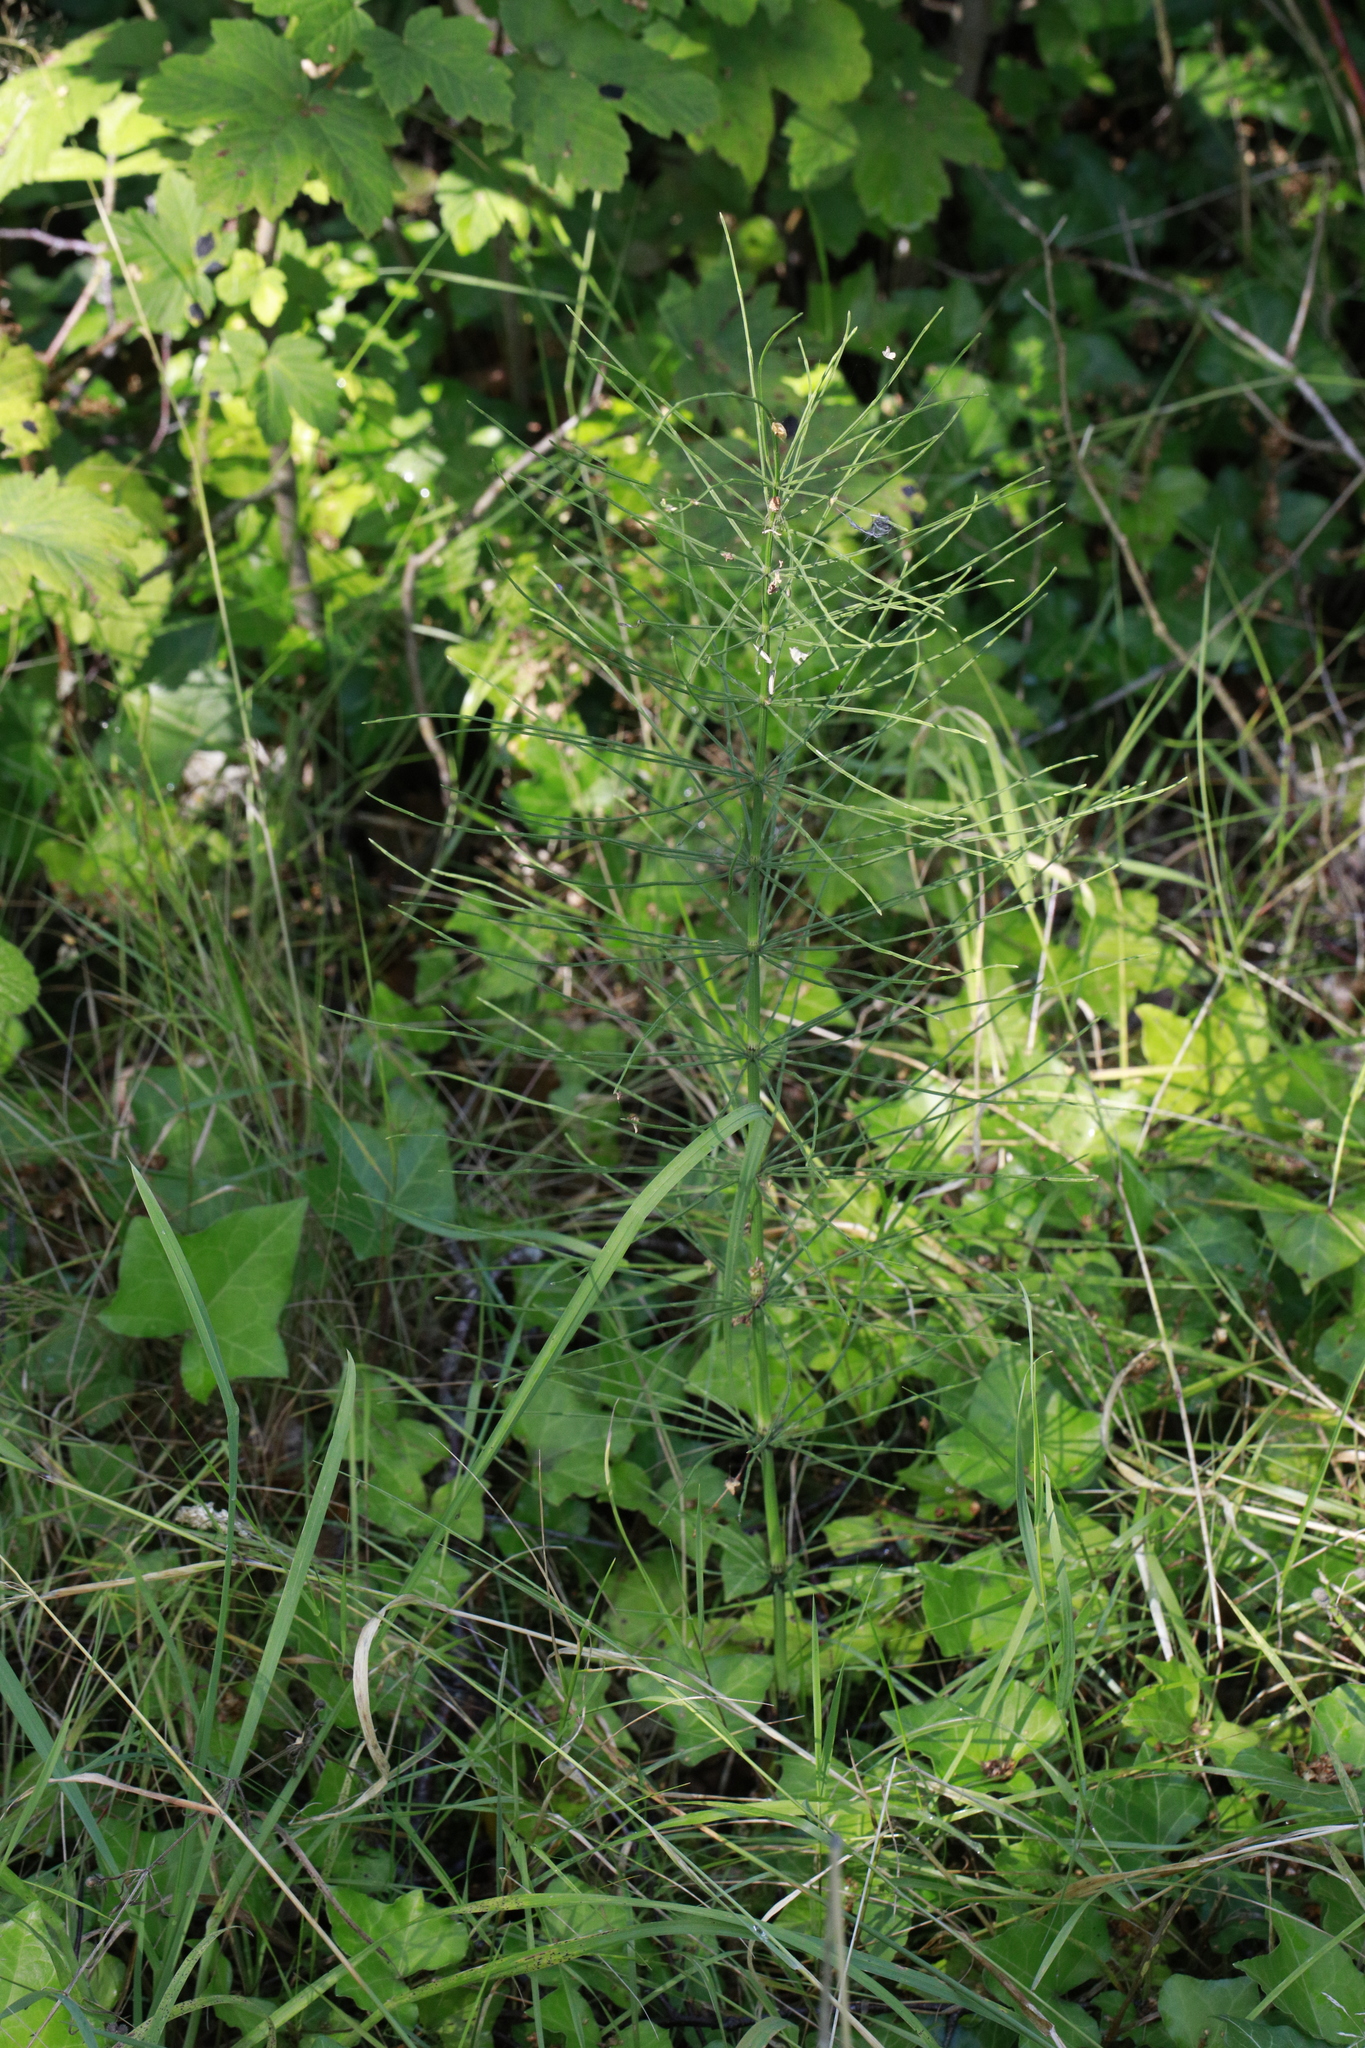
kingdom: Plantae
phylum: Tracheophyta
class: Polypodiopsida
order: Equisetales
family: Equisetaceae
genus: Equisetum
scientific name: Equisetum arvense
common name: Field horsetail
